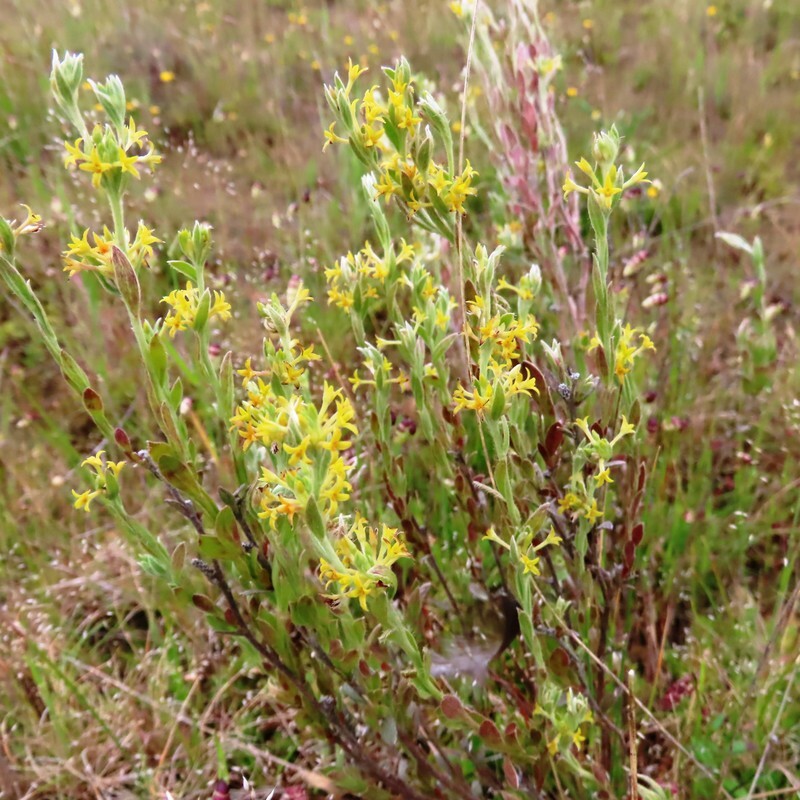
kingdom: Plantae
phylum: Tracheophyta
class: Magnoliopsida
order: Malvales
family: Thymelaeaceae
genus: Pimelea
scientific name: Pimelea curviflora
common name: Curved riceflower
